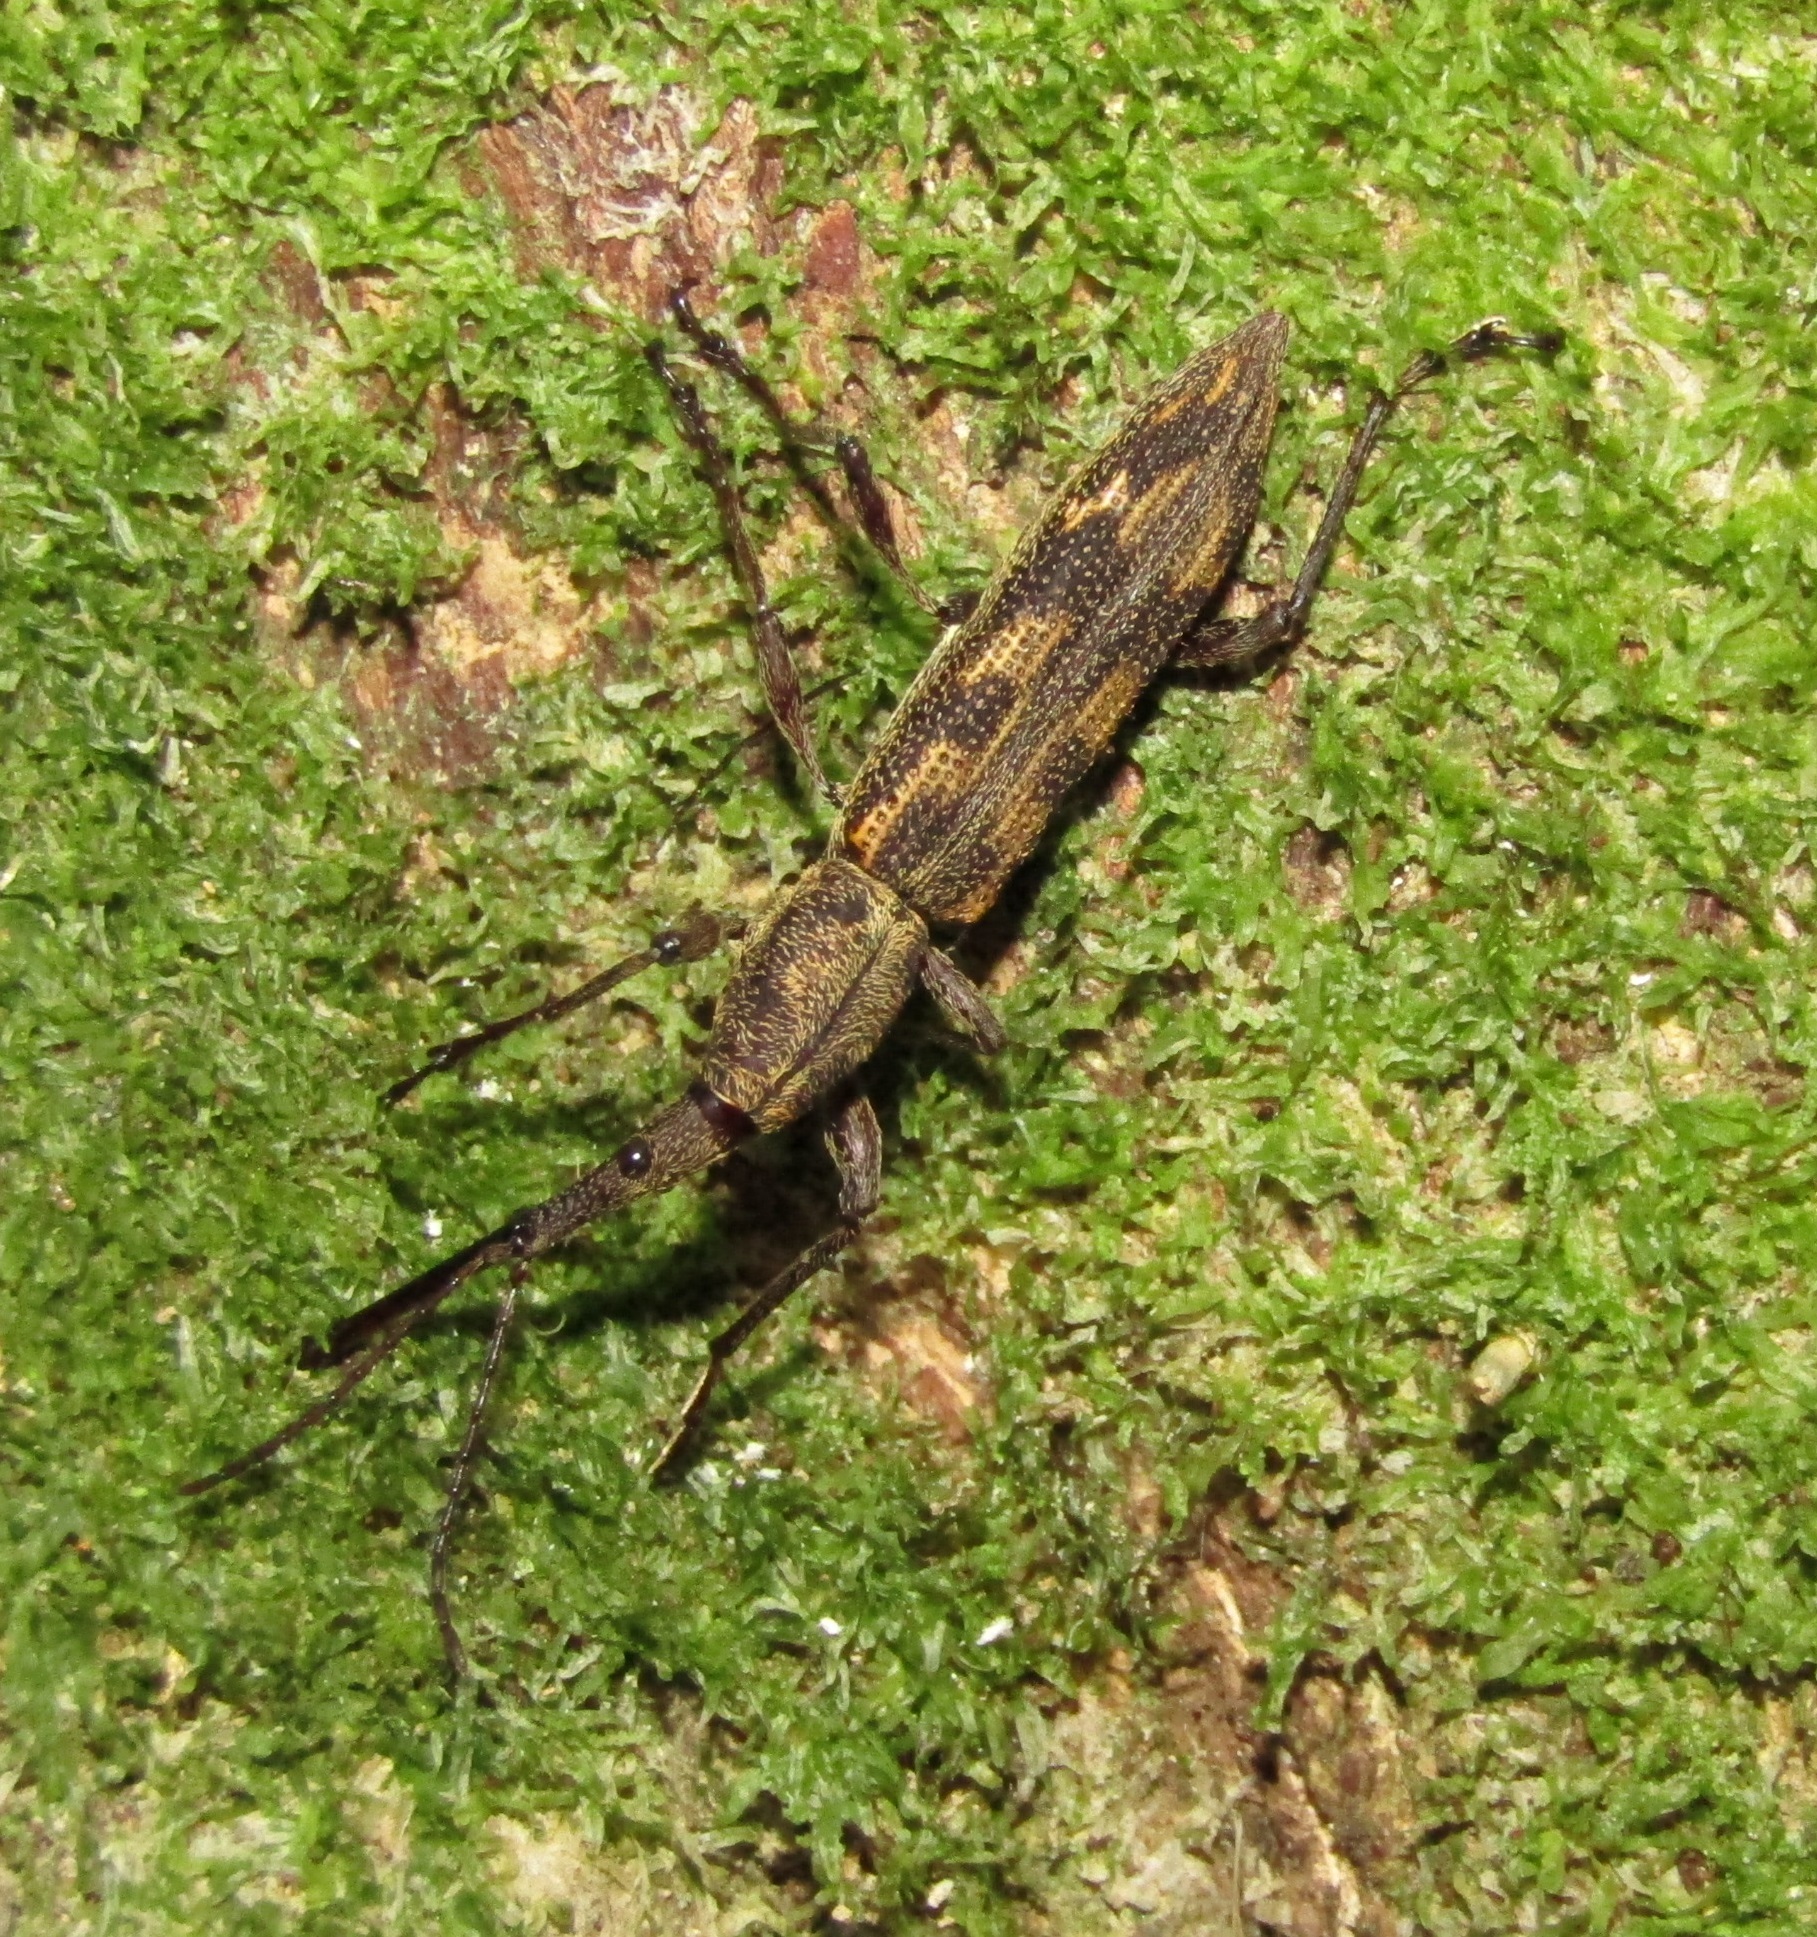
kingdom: Animalia
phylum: Arthropoda
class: Insecta
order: Coleoptera
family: Brentidae
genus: Lasiorhynchus
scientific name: Lasiorhynchus barbicornis
